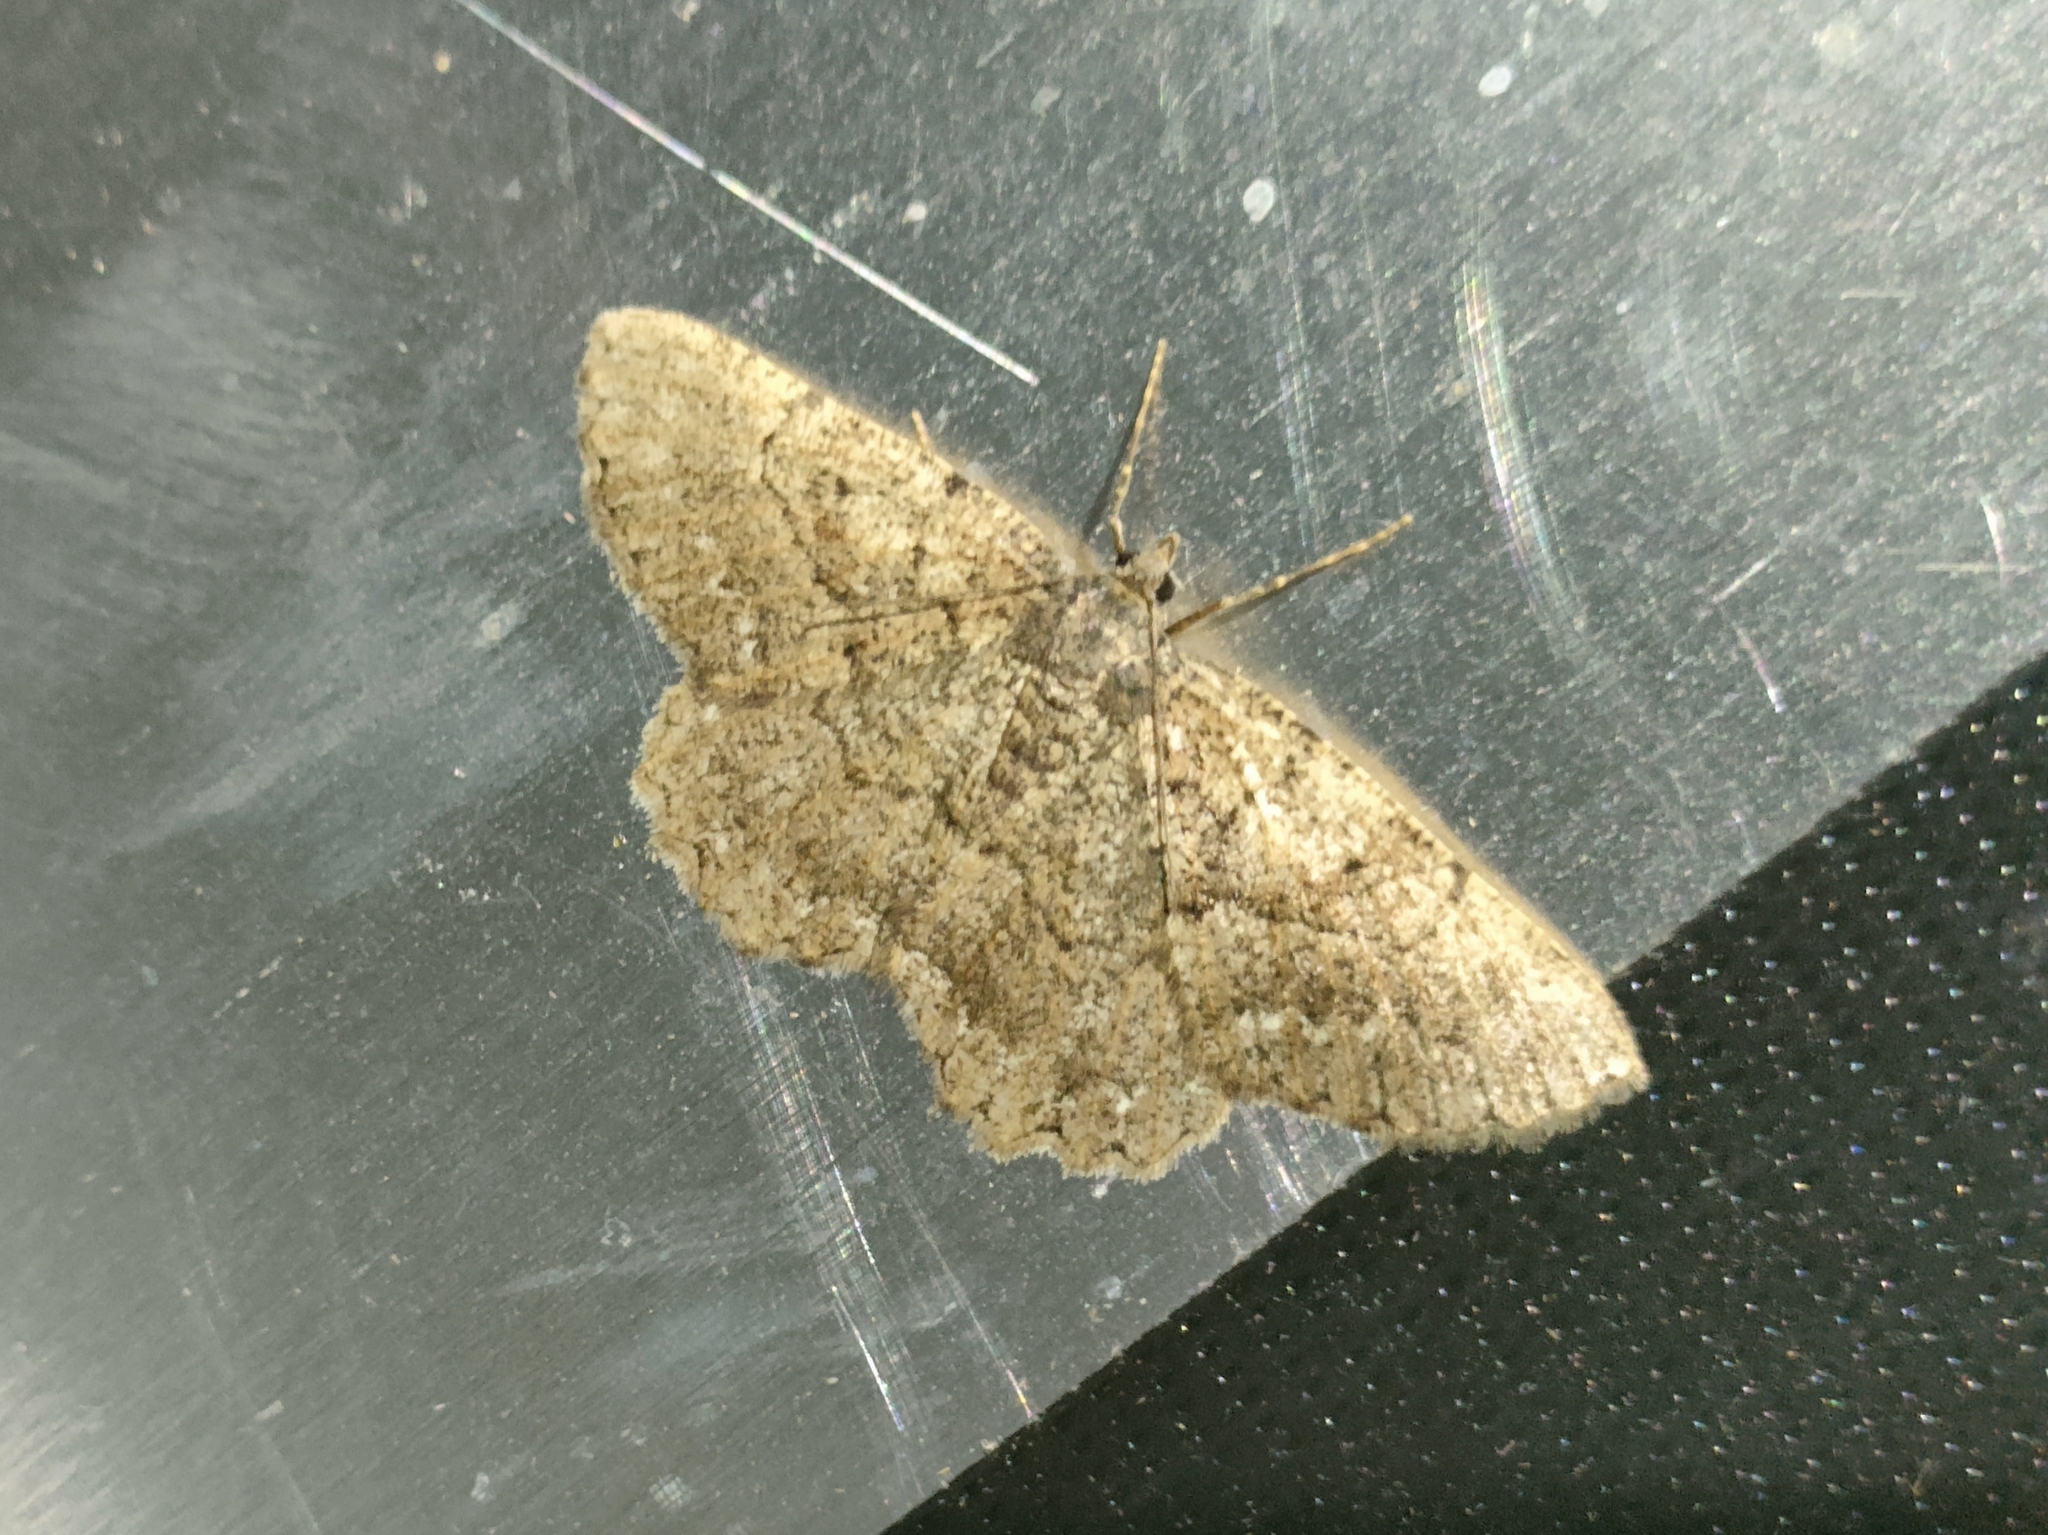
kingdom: Animalia
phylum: Arthropoda
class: Insecta
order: Lepidoptera
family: Geometridae
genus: Selidosema
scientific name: Selidosema taeniolaria
